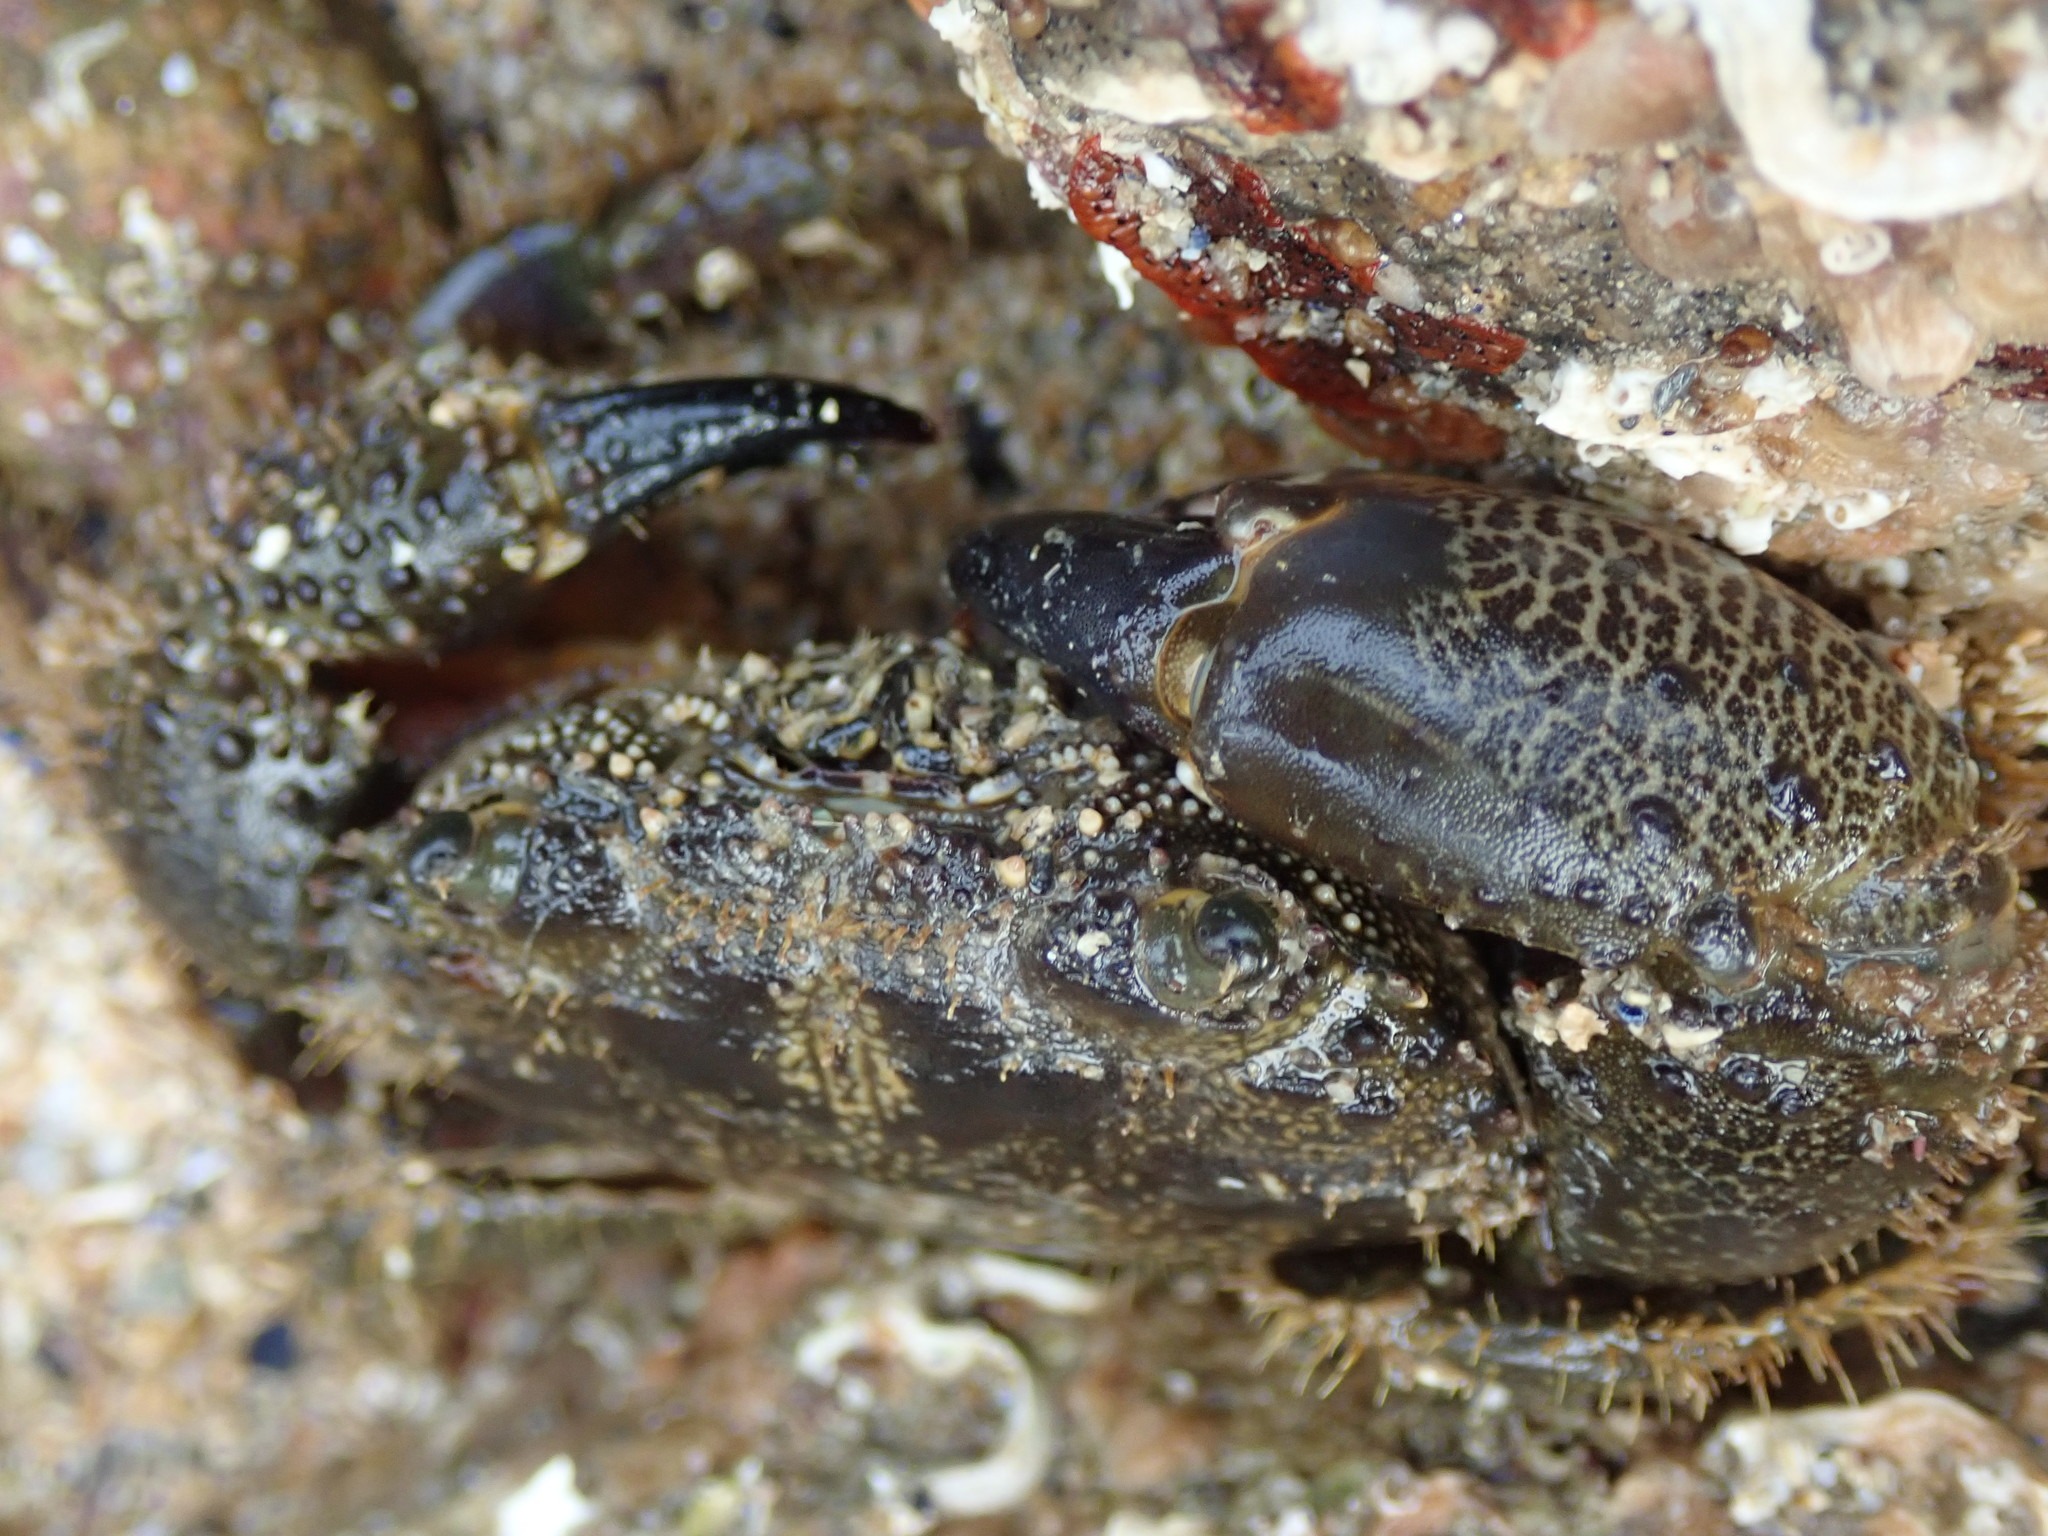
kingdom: Animalia
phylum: Arthropoda
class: Malacostraca
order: Decapoda
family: Eriphiidae
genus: Eriphia
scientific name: Eriphia verrucosa
